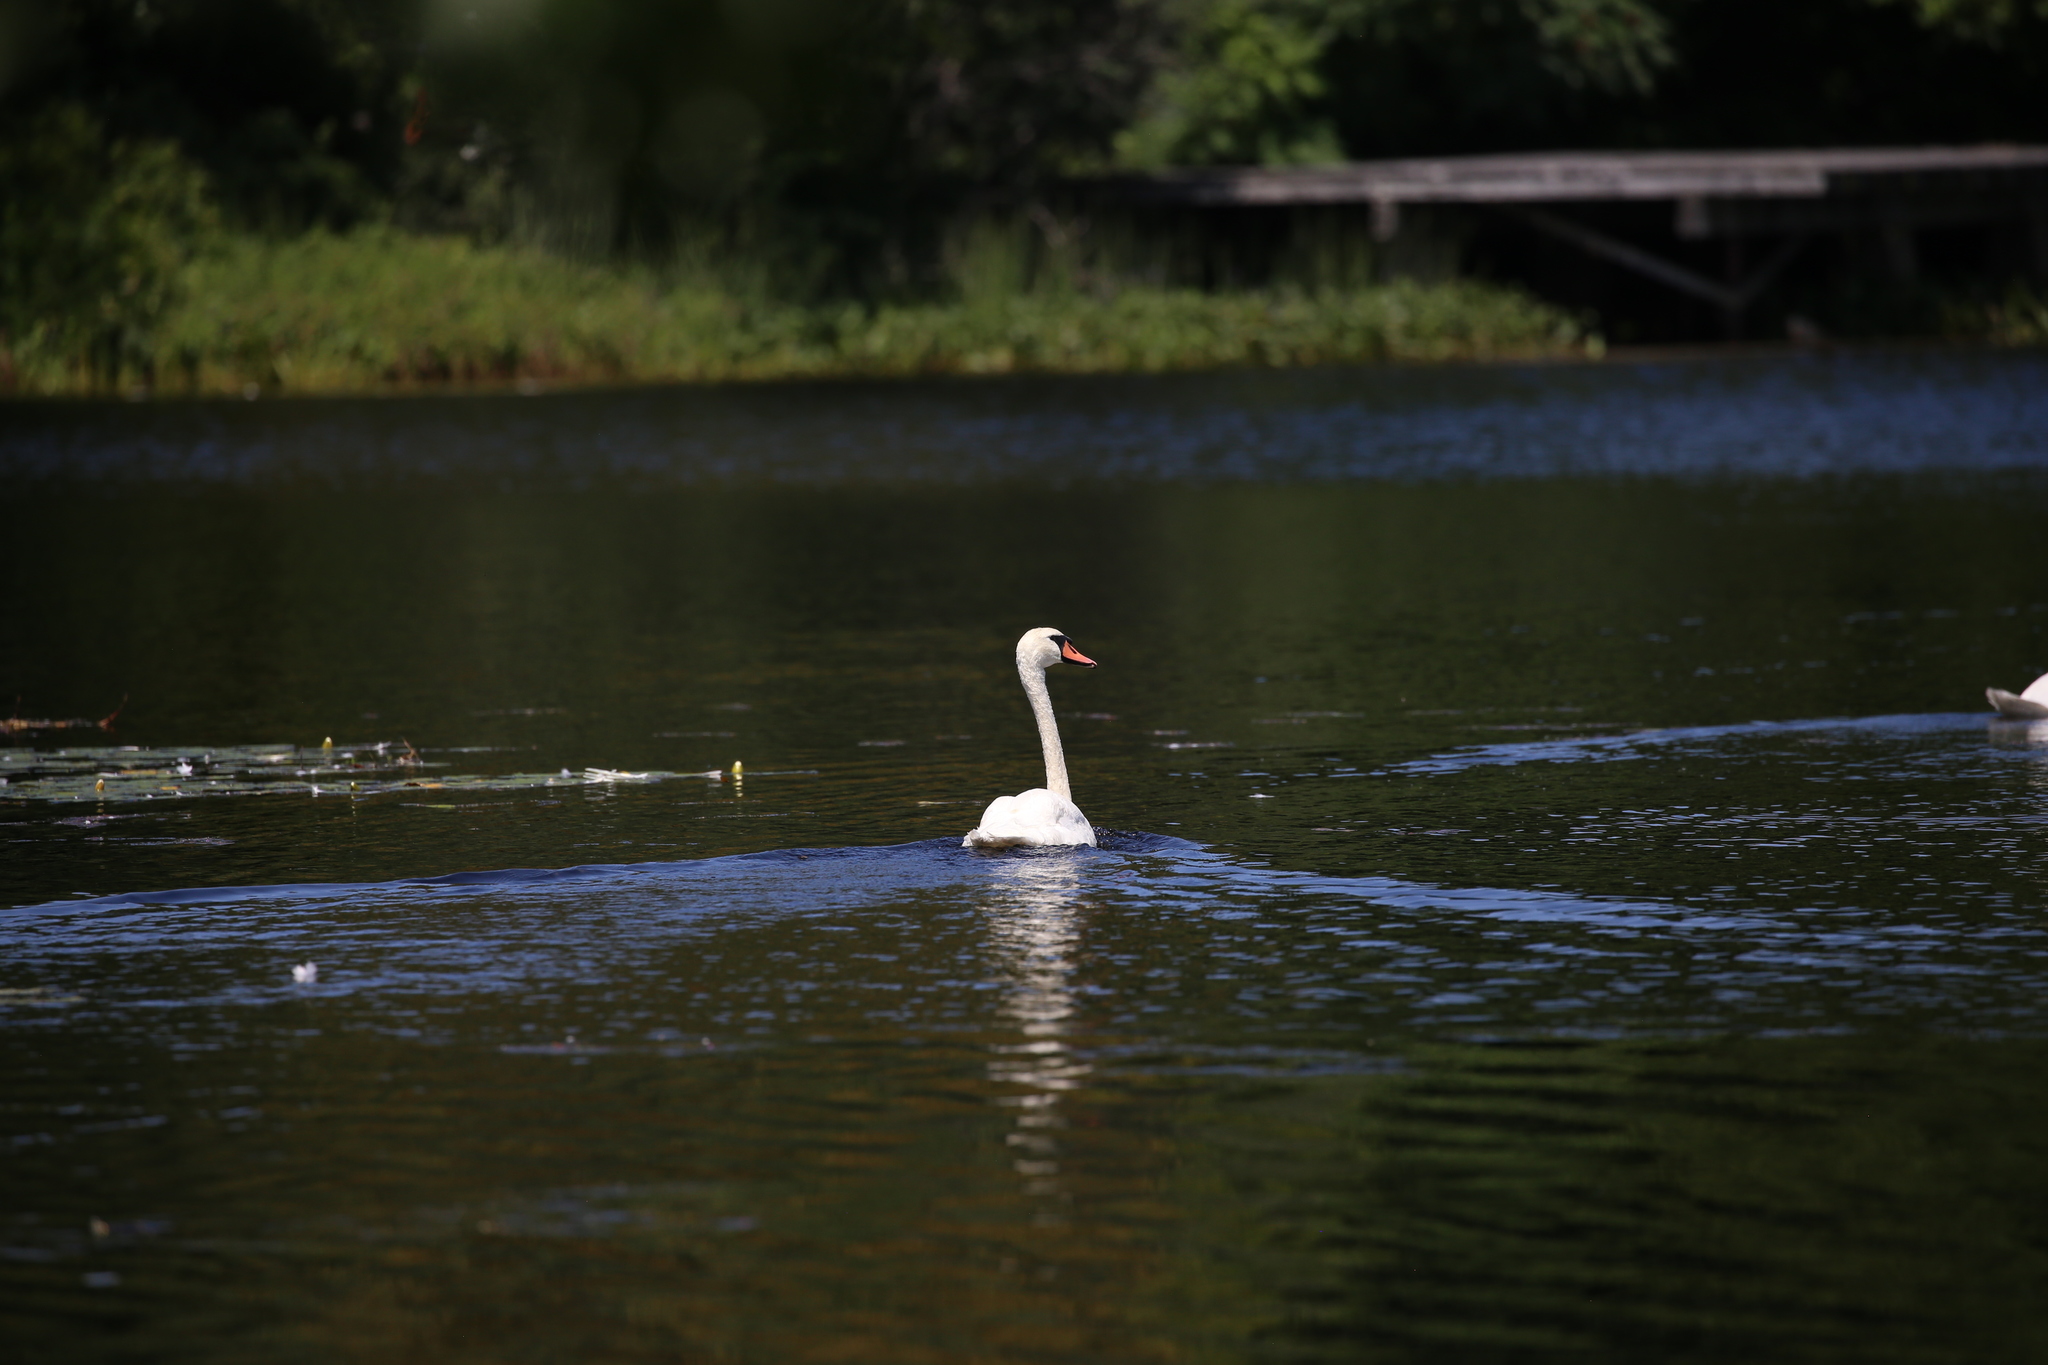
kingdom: Animalia
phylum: Chordata
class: Aves
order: Anseriformes
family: Anatidae
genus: Cygnus
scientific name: Cygnus olor
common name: Mute swan
